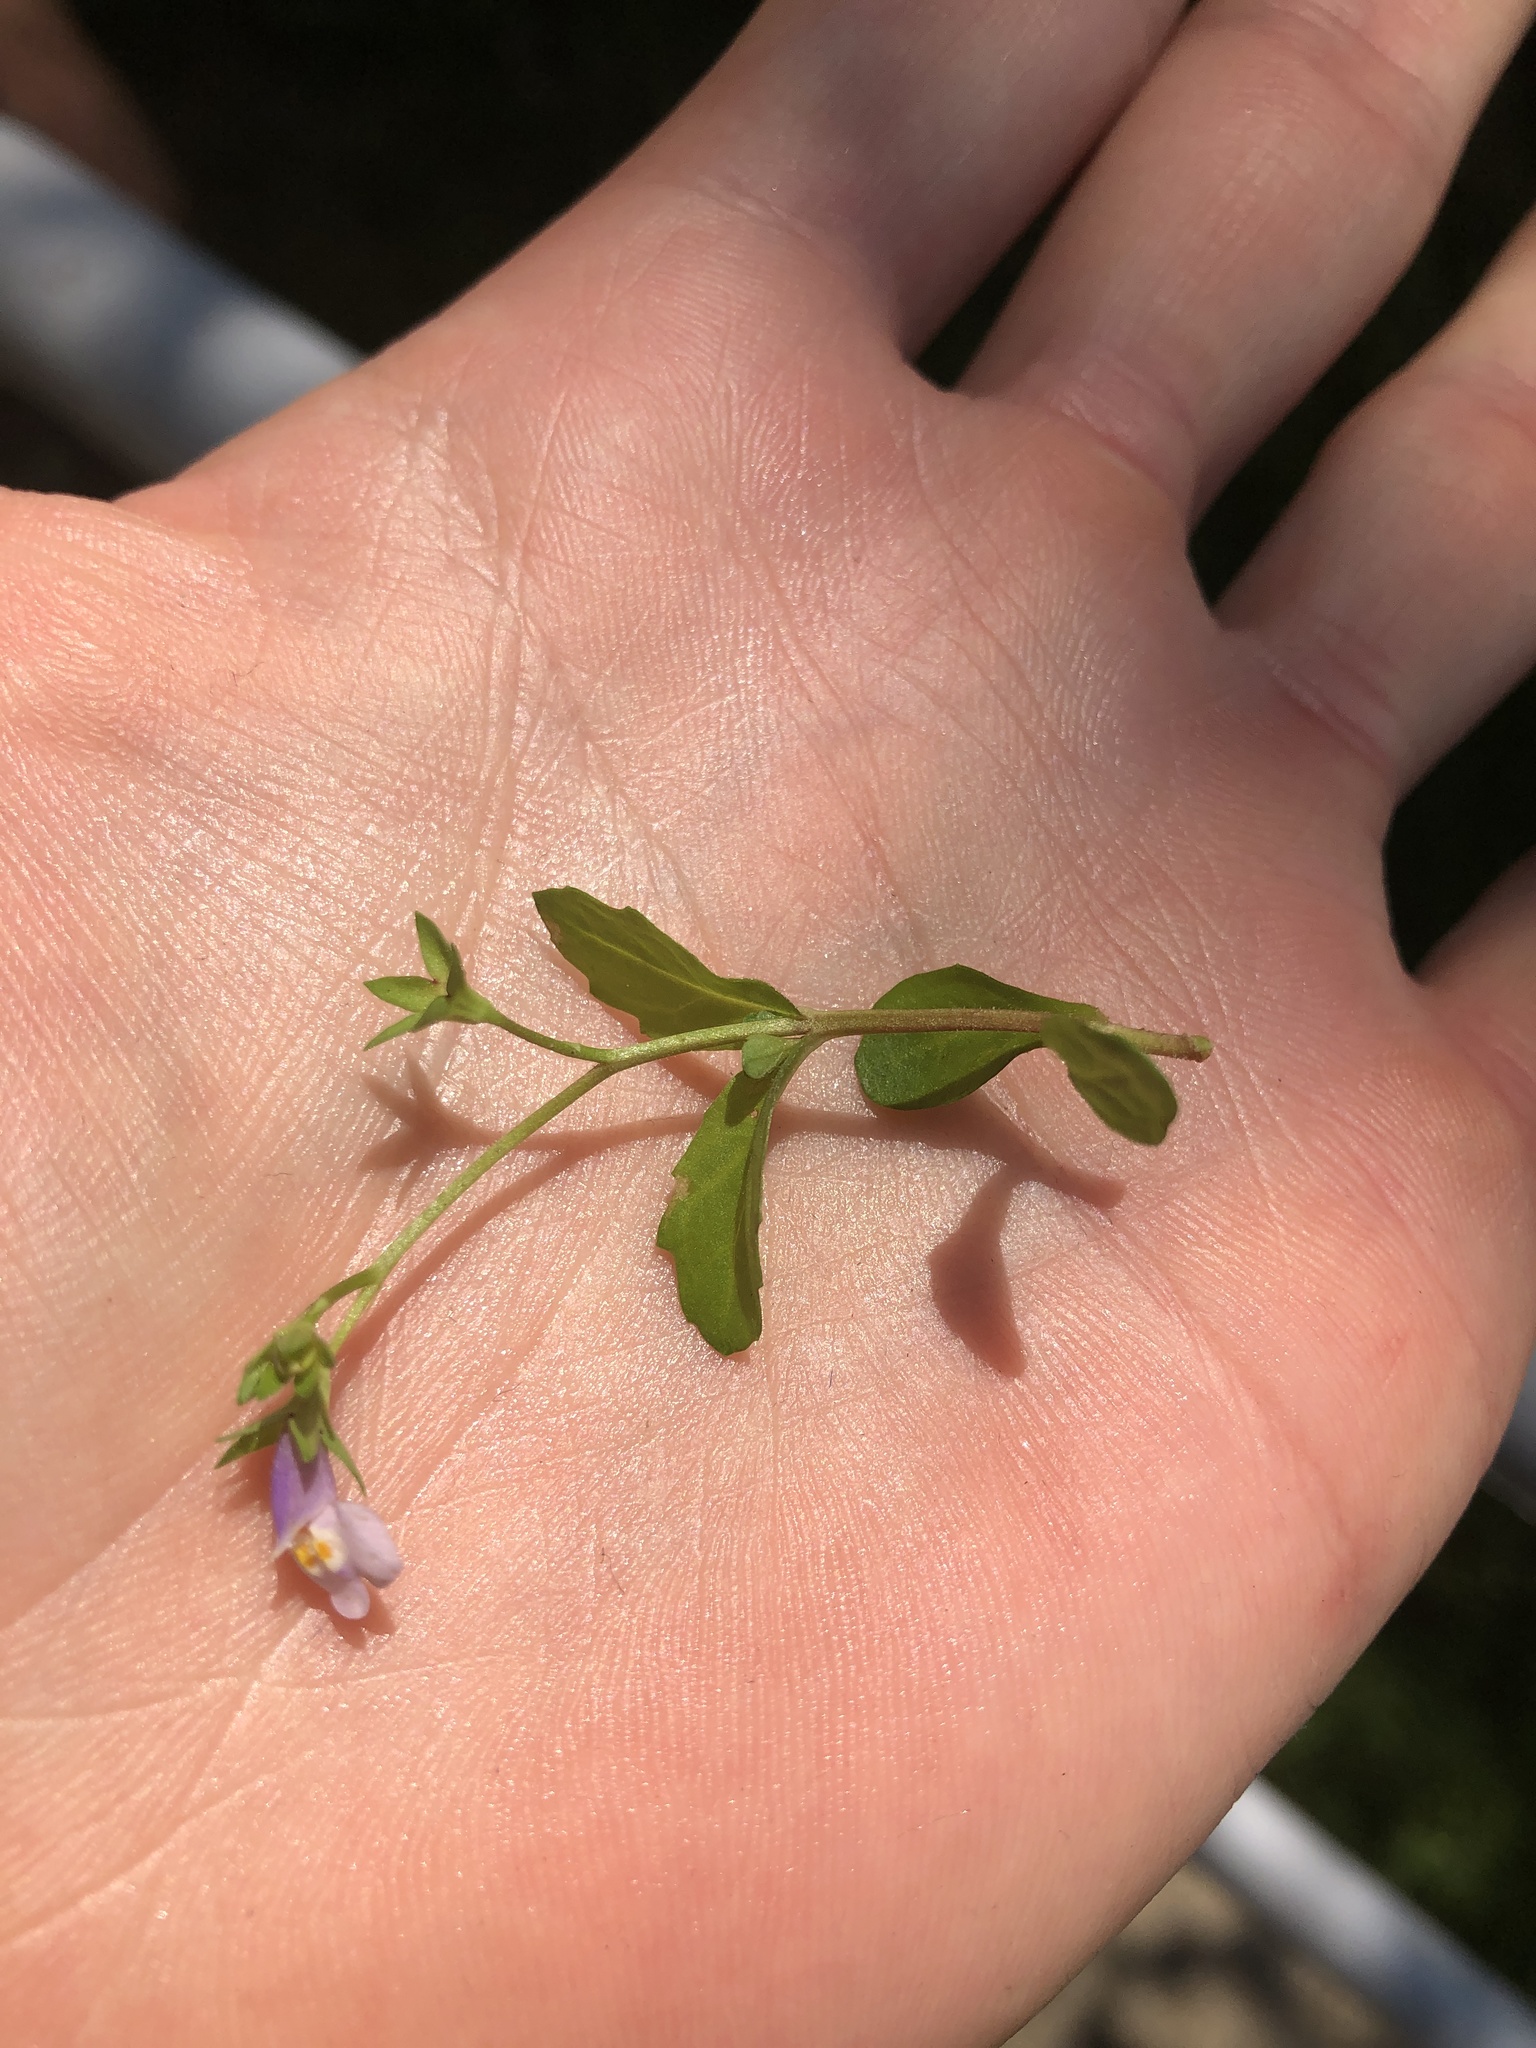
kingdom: Plantae
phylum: Tracheophyta
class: Magnoliopsida
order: Lamiales
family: Mazaceae
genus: Mazus
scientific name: Mazus pumilus
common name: Japanese mazus
